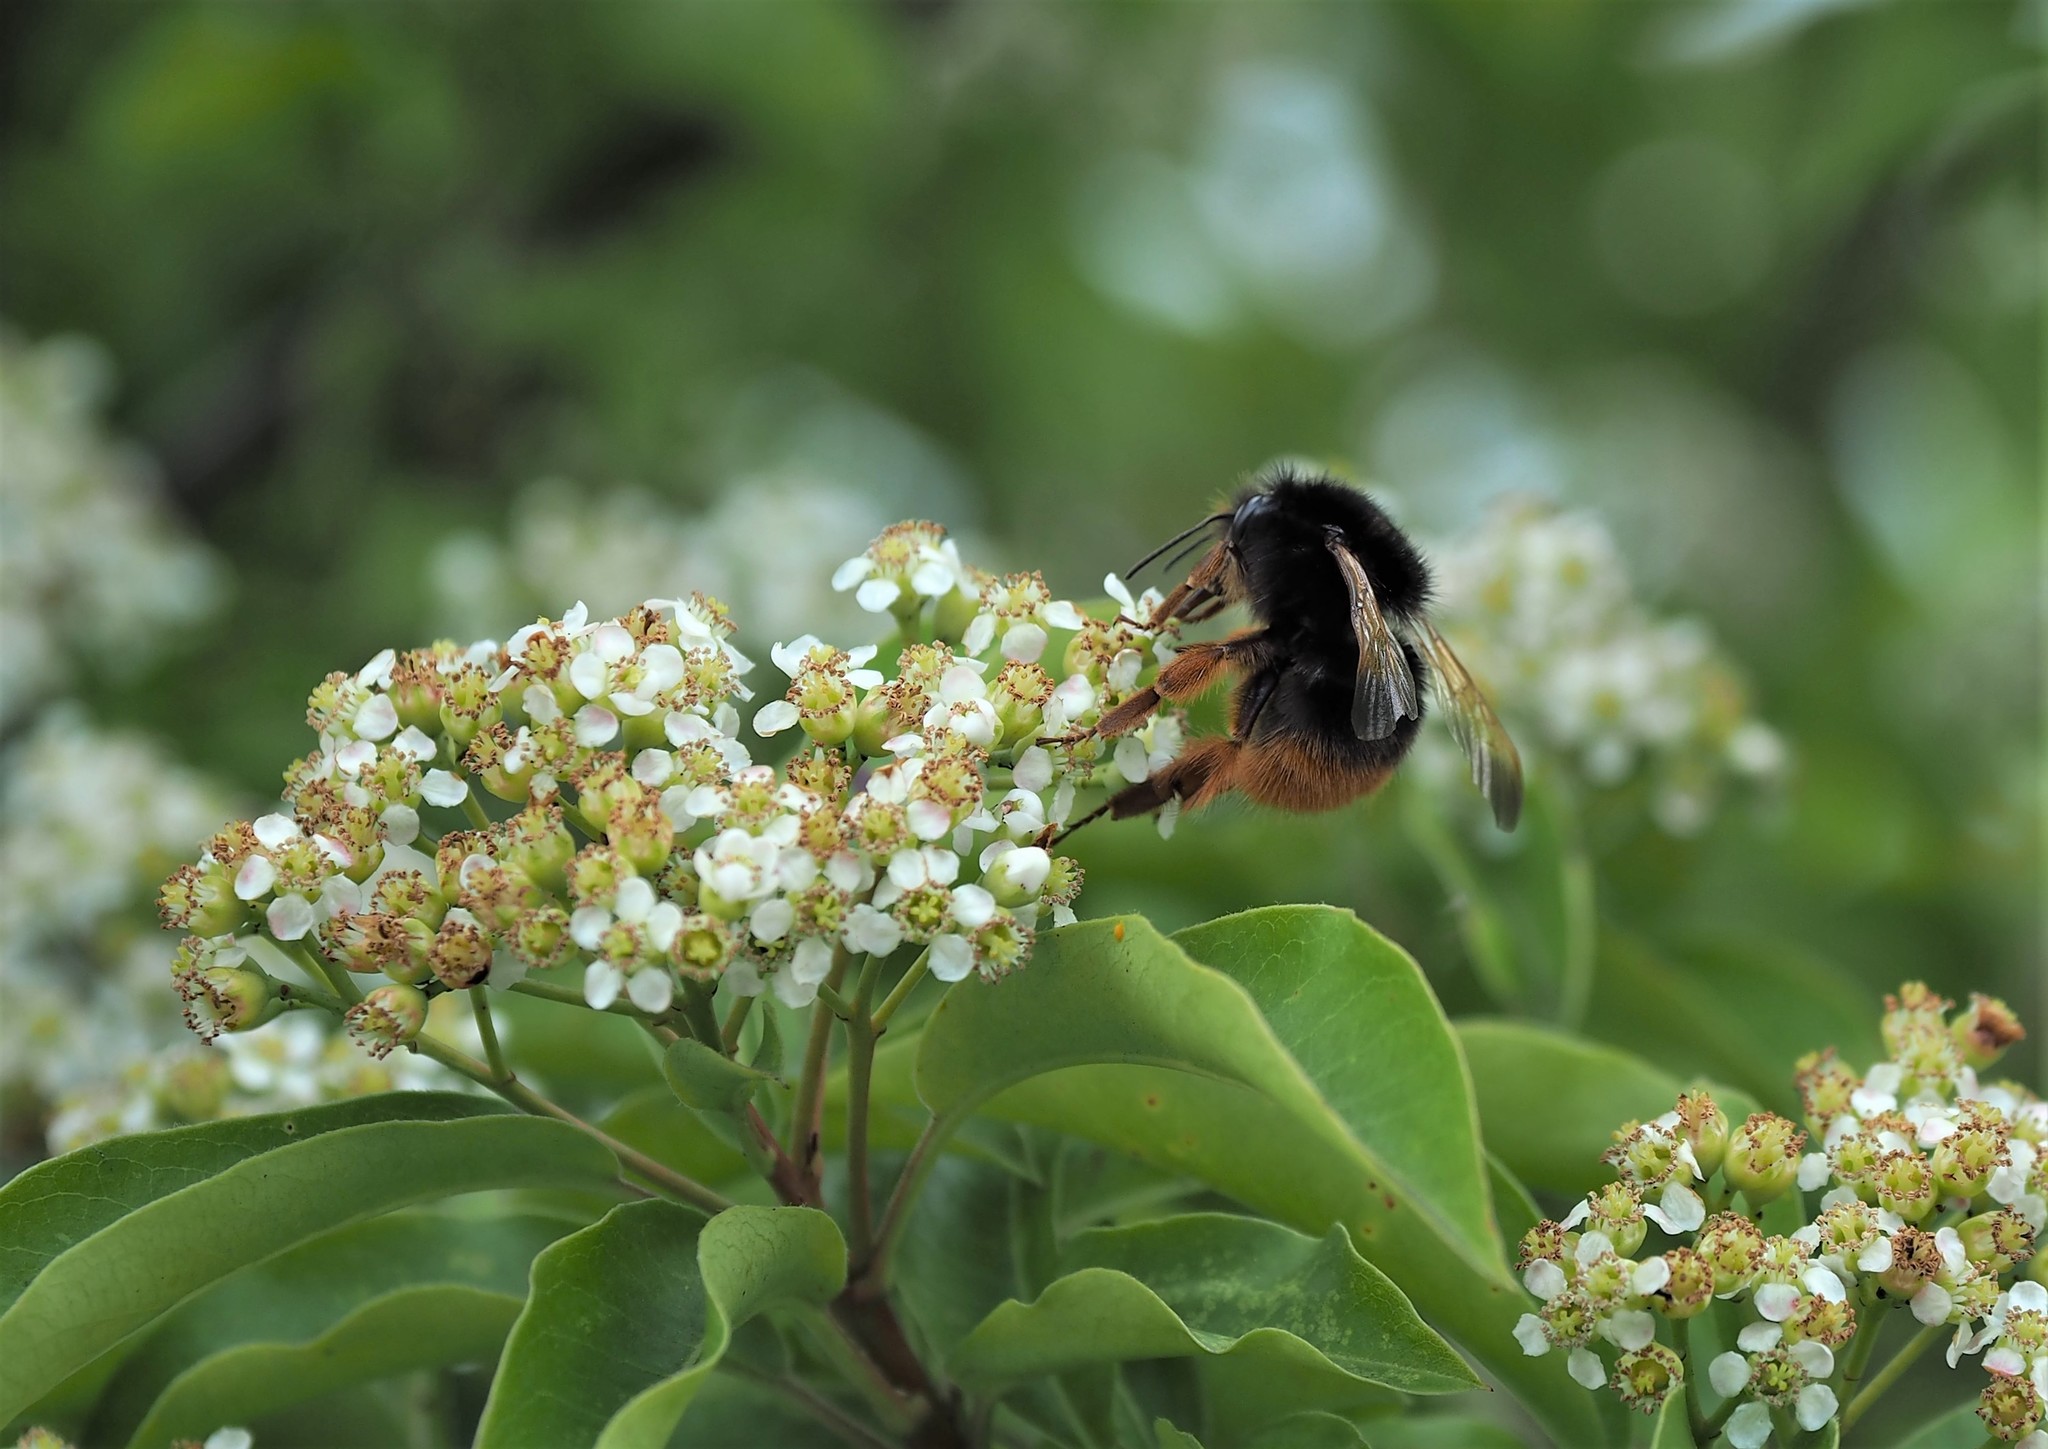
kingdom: Animalia
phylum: Arthropoda
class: Insecta
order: Hymenoptera
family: Apidae
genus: Bombus
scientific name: Bombus eximius
